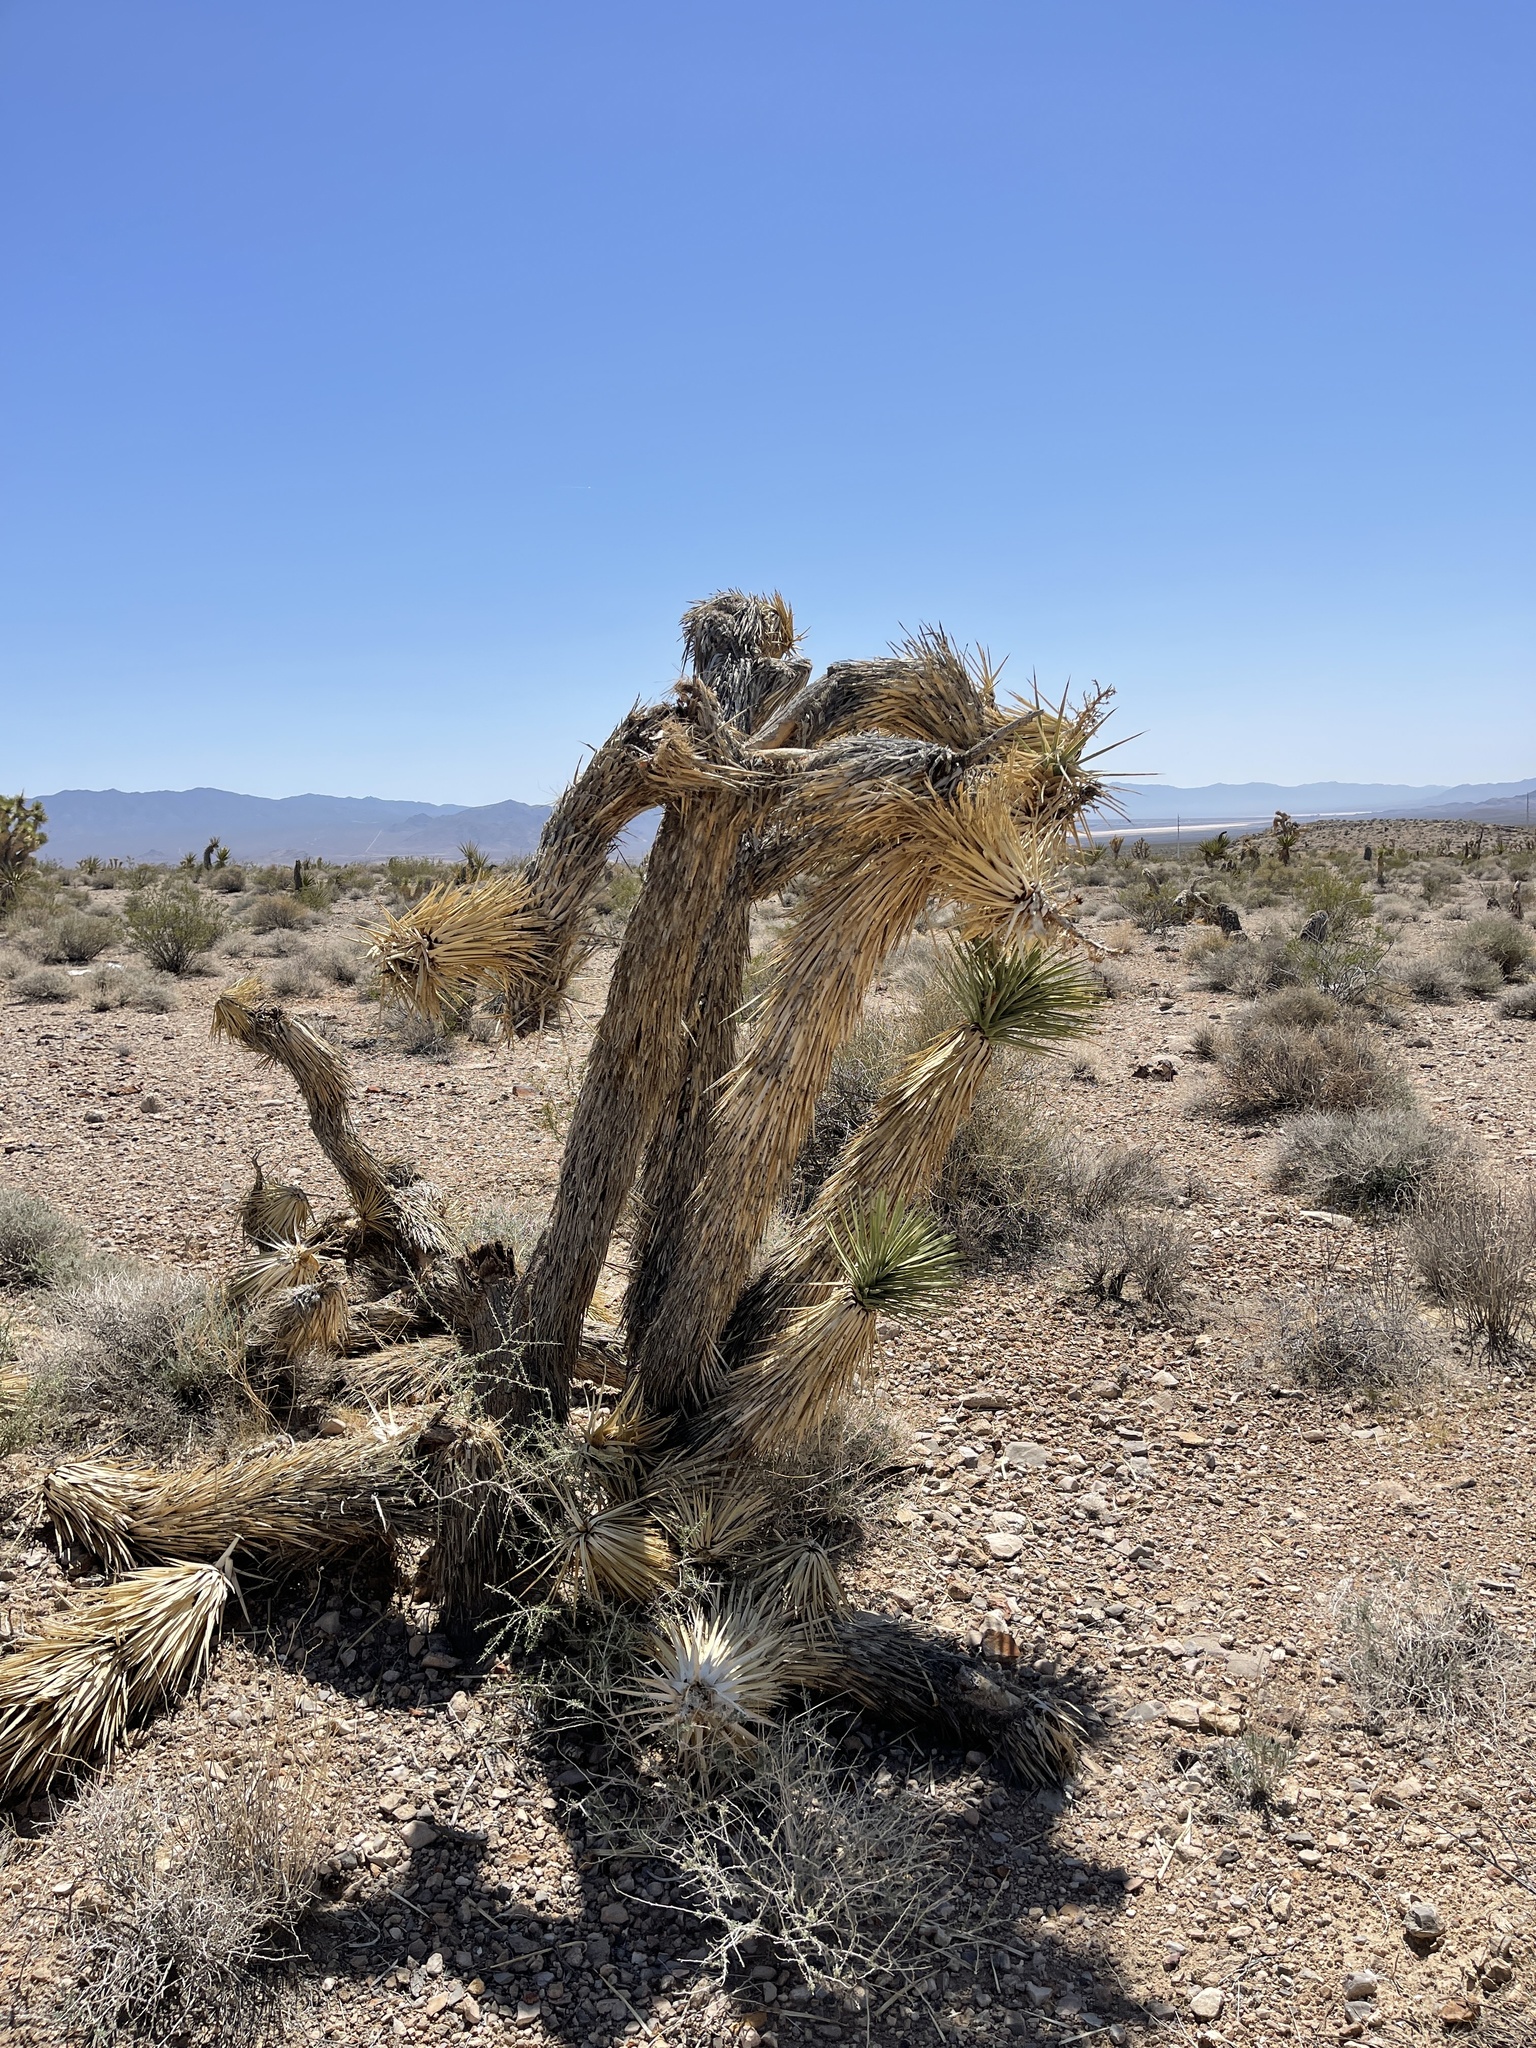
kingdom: Plantae
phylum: Tracheophyta
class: Liliopsida
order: Asparagales
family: Asparagaceae
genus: Yucca
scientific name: Yucca brevifolia
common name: Joshua tree
